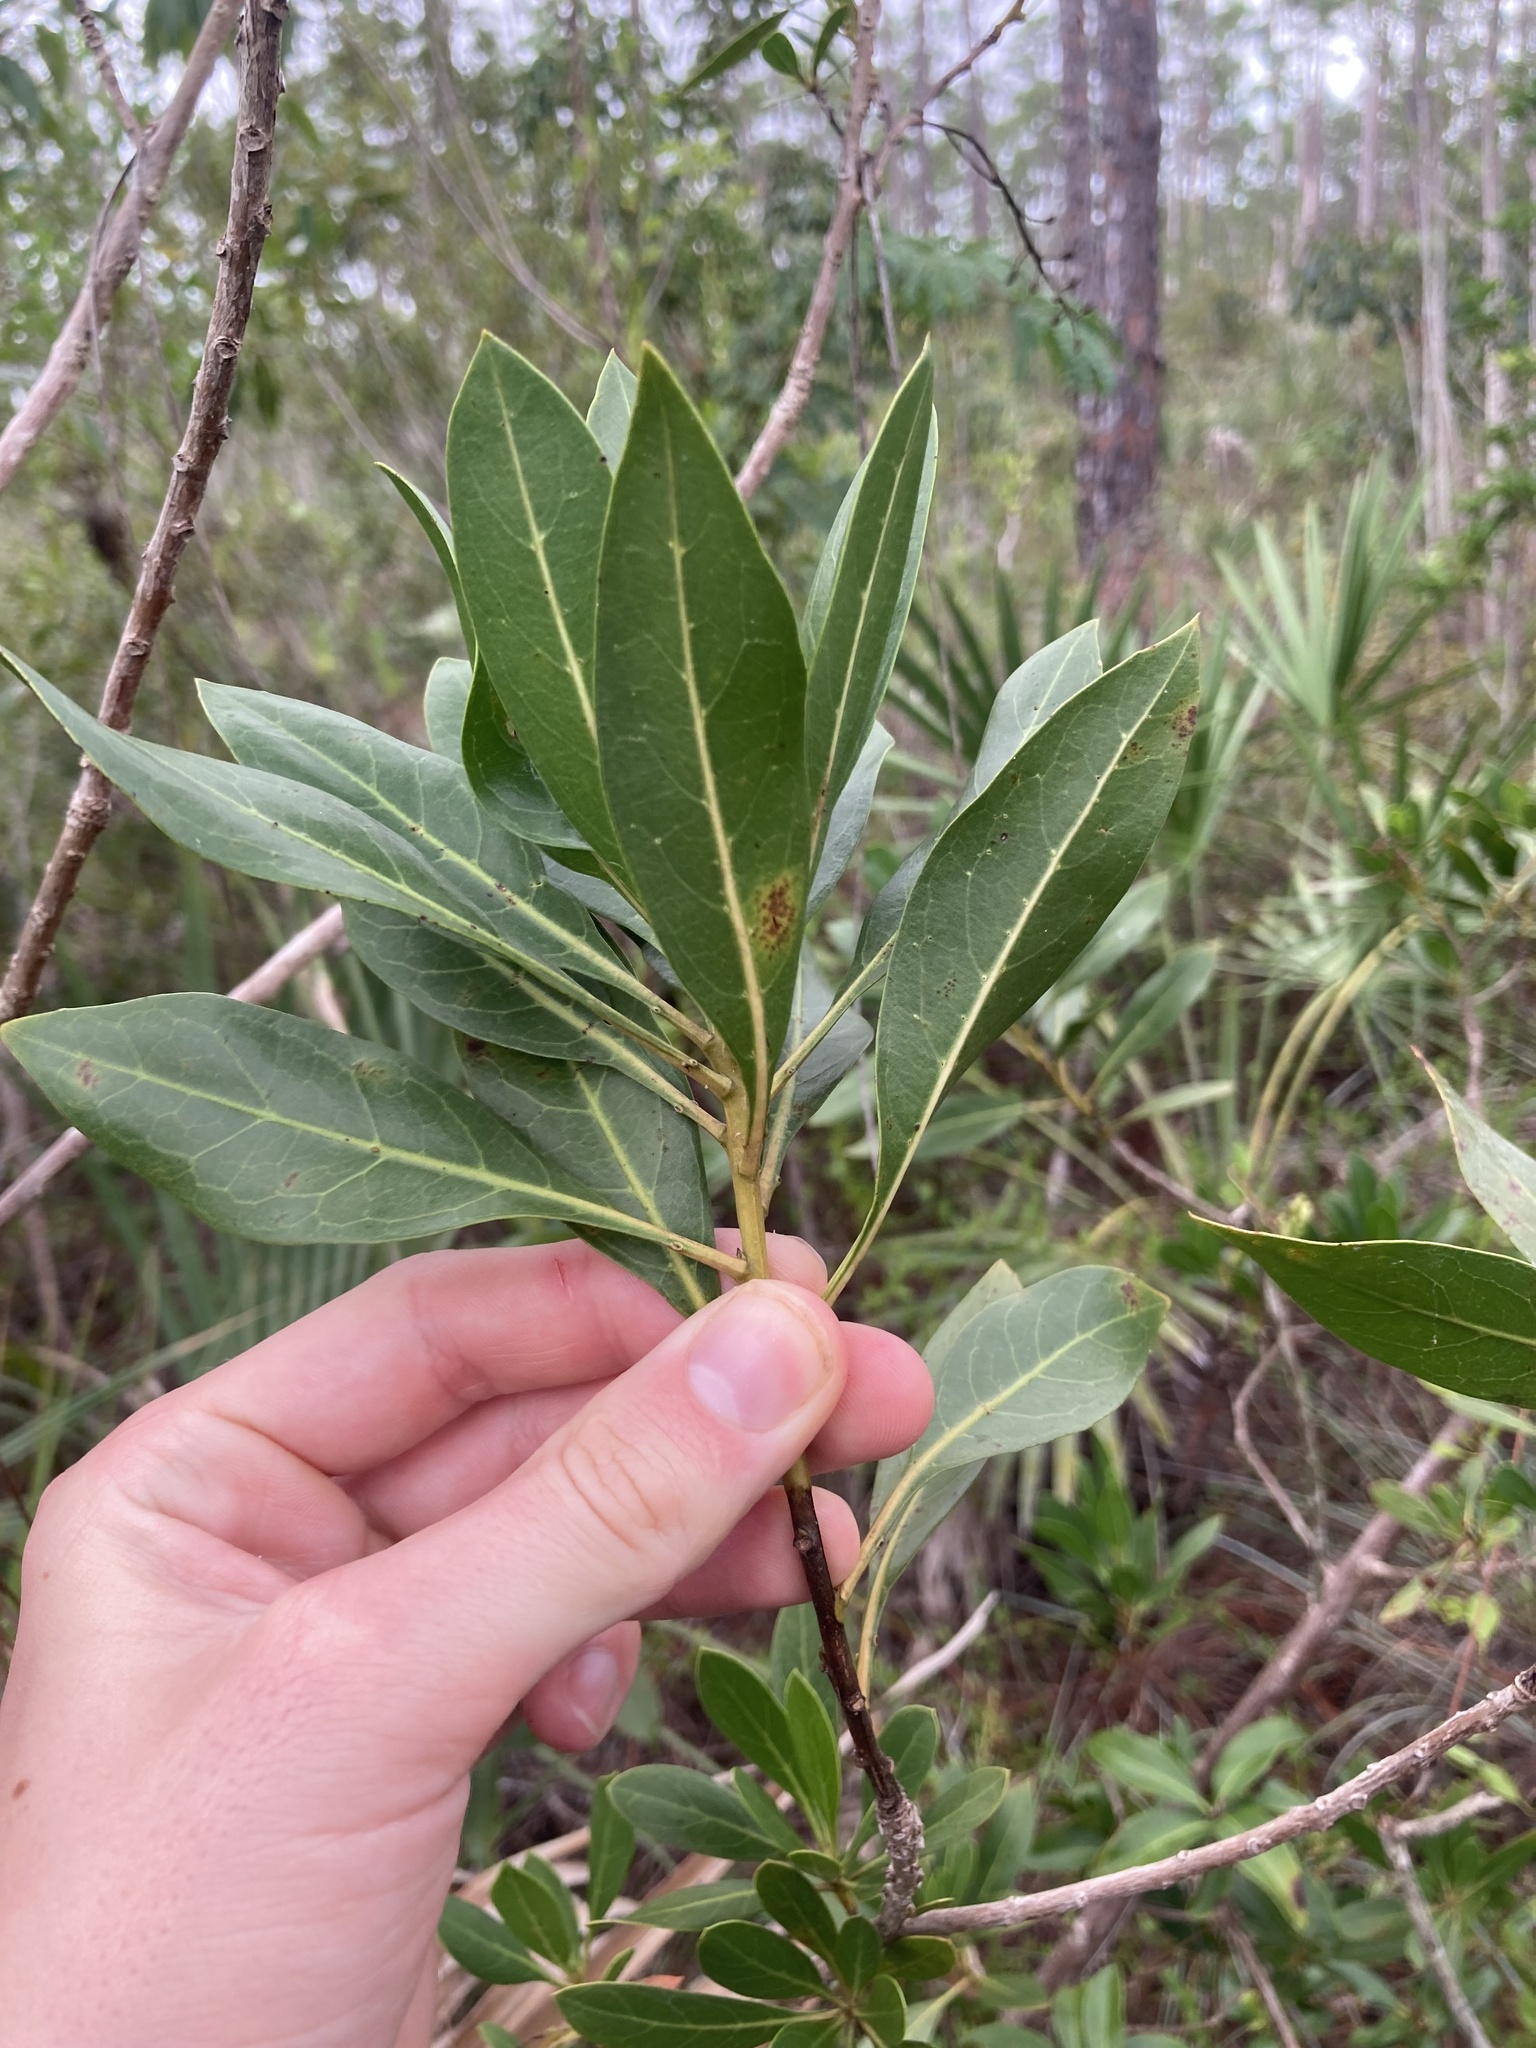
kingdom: Plantae
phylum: Tracheophyta
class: Magnoliopsida
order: Ericales
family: Primulaceae
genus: Ardisia
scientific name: Ardisia escallonioides
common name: Island marlberry
